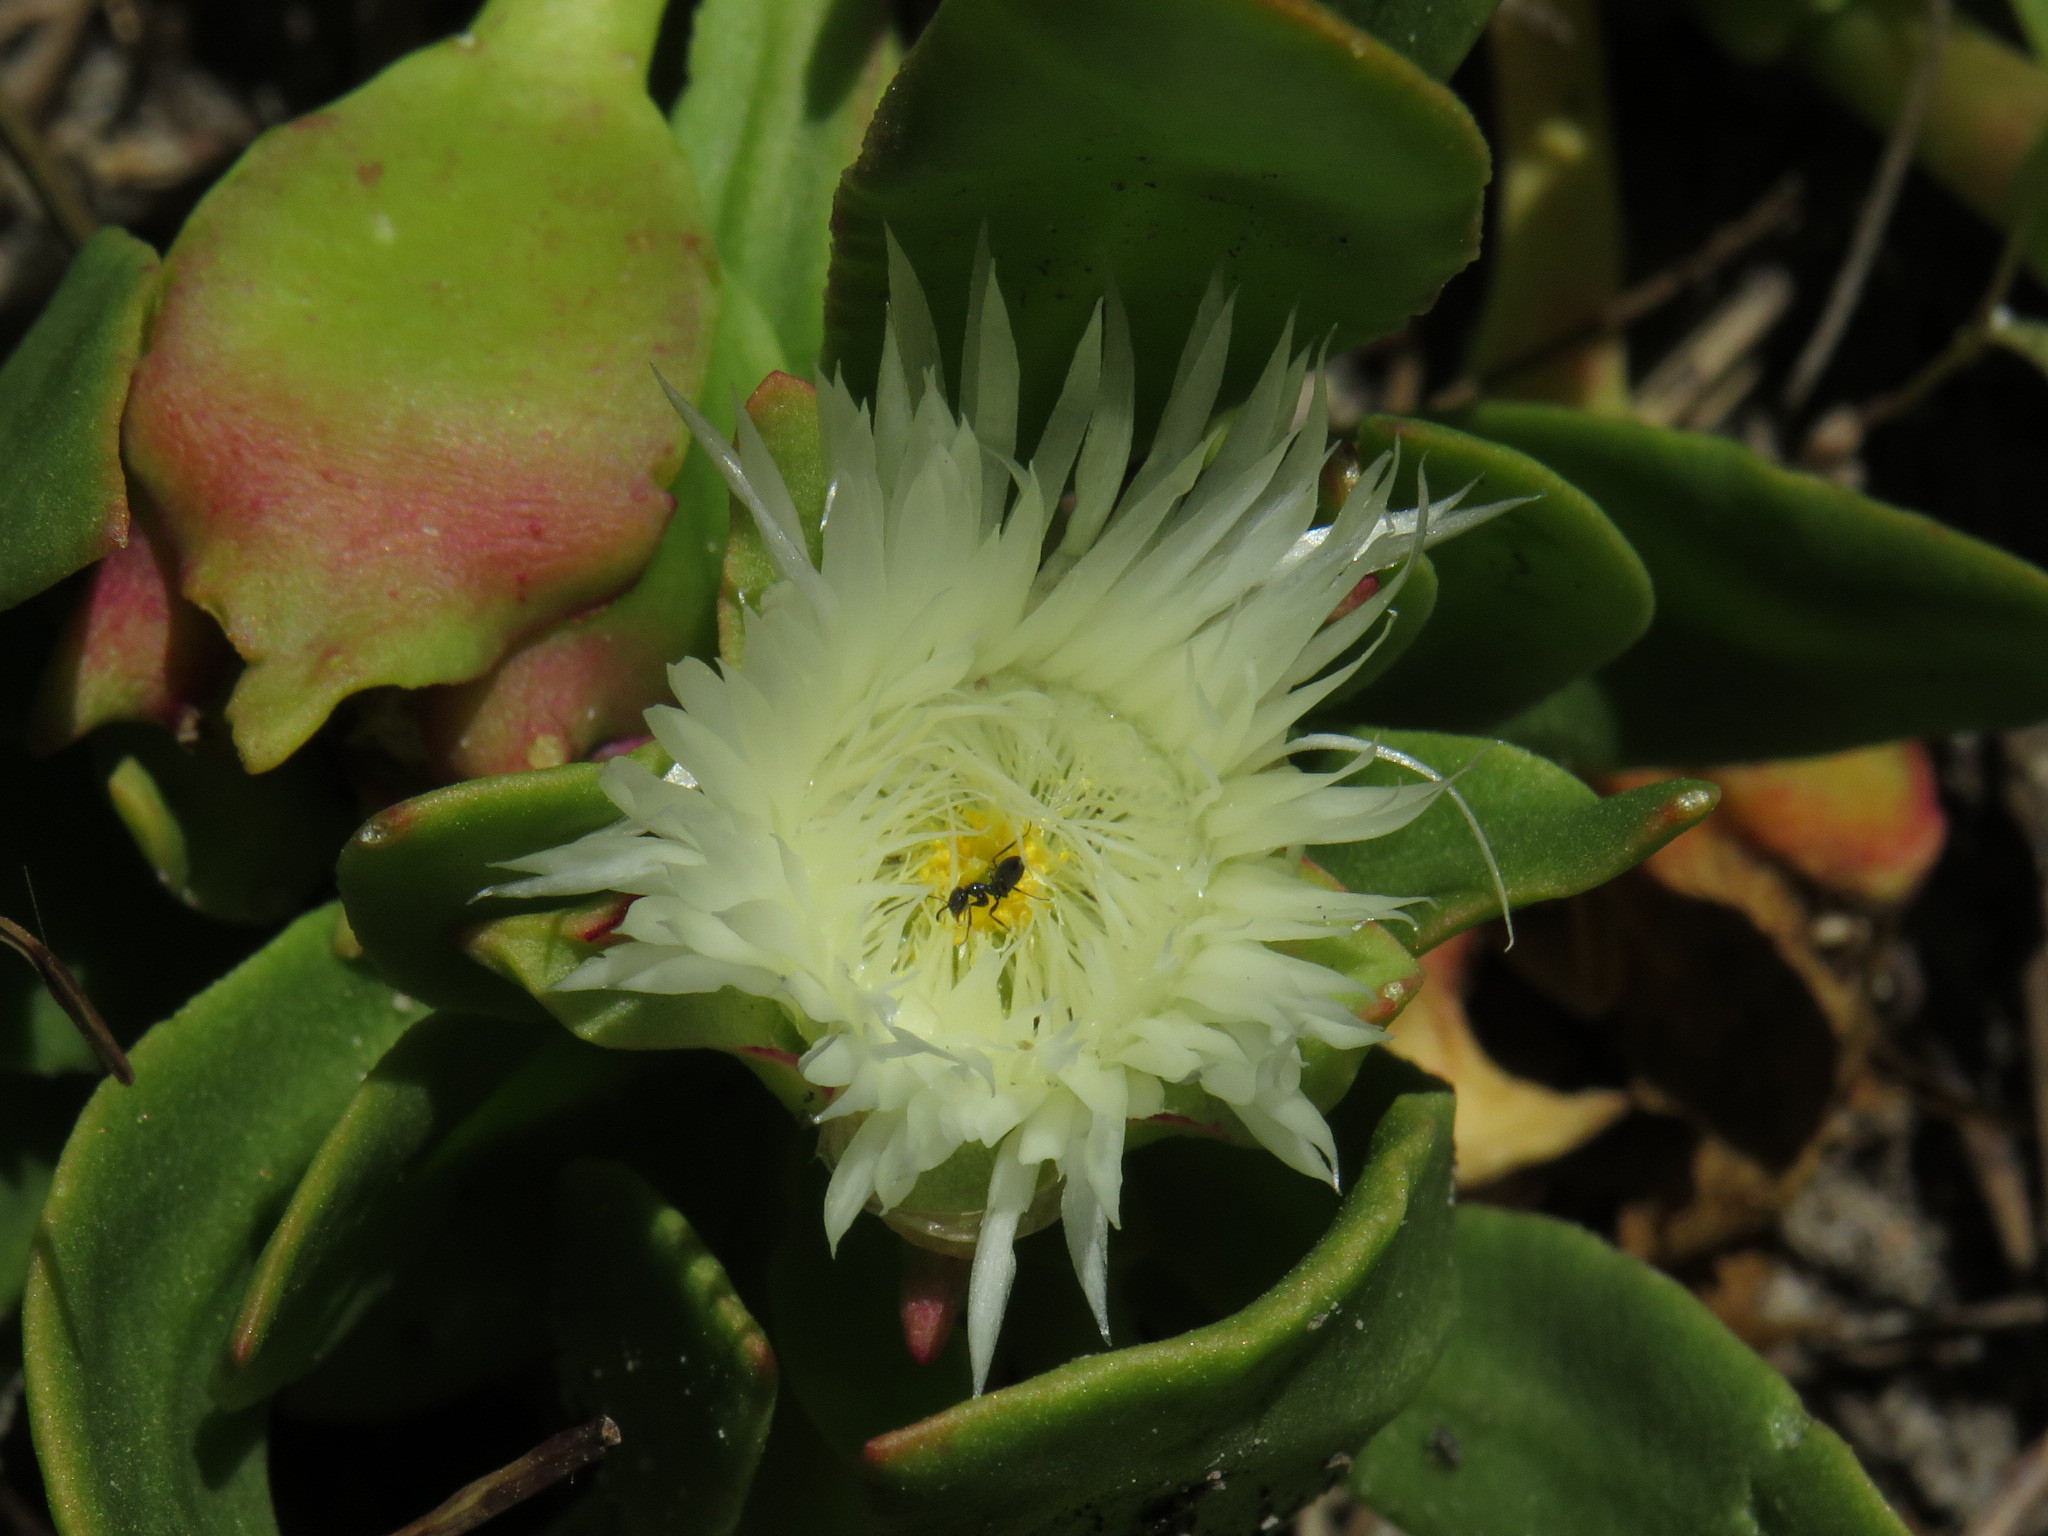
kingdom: Animalia
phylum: Arthropoda
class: Insecta
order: Hymenoptera
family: Formicidae
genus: Lepisiota
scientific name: Lepisiota capensis
